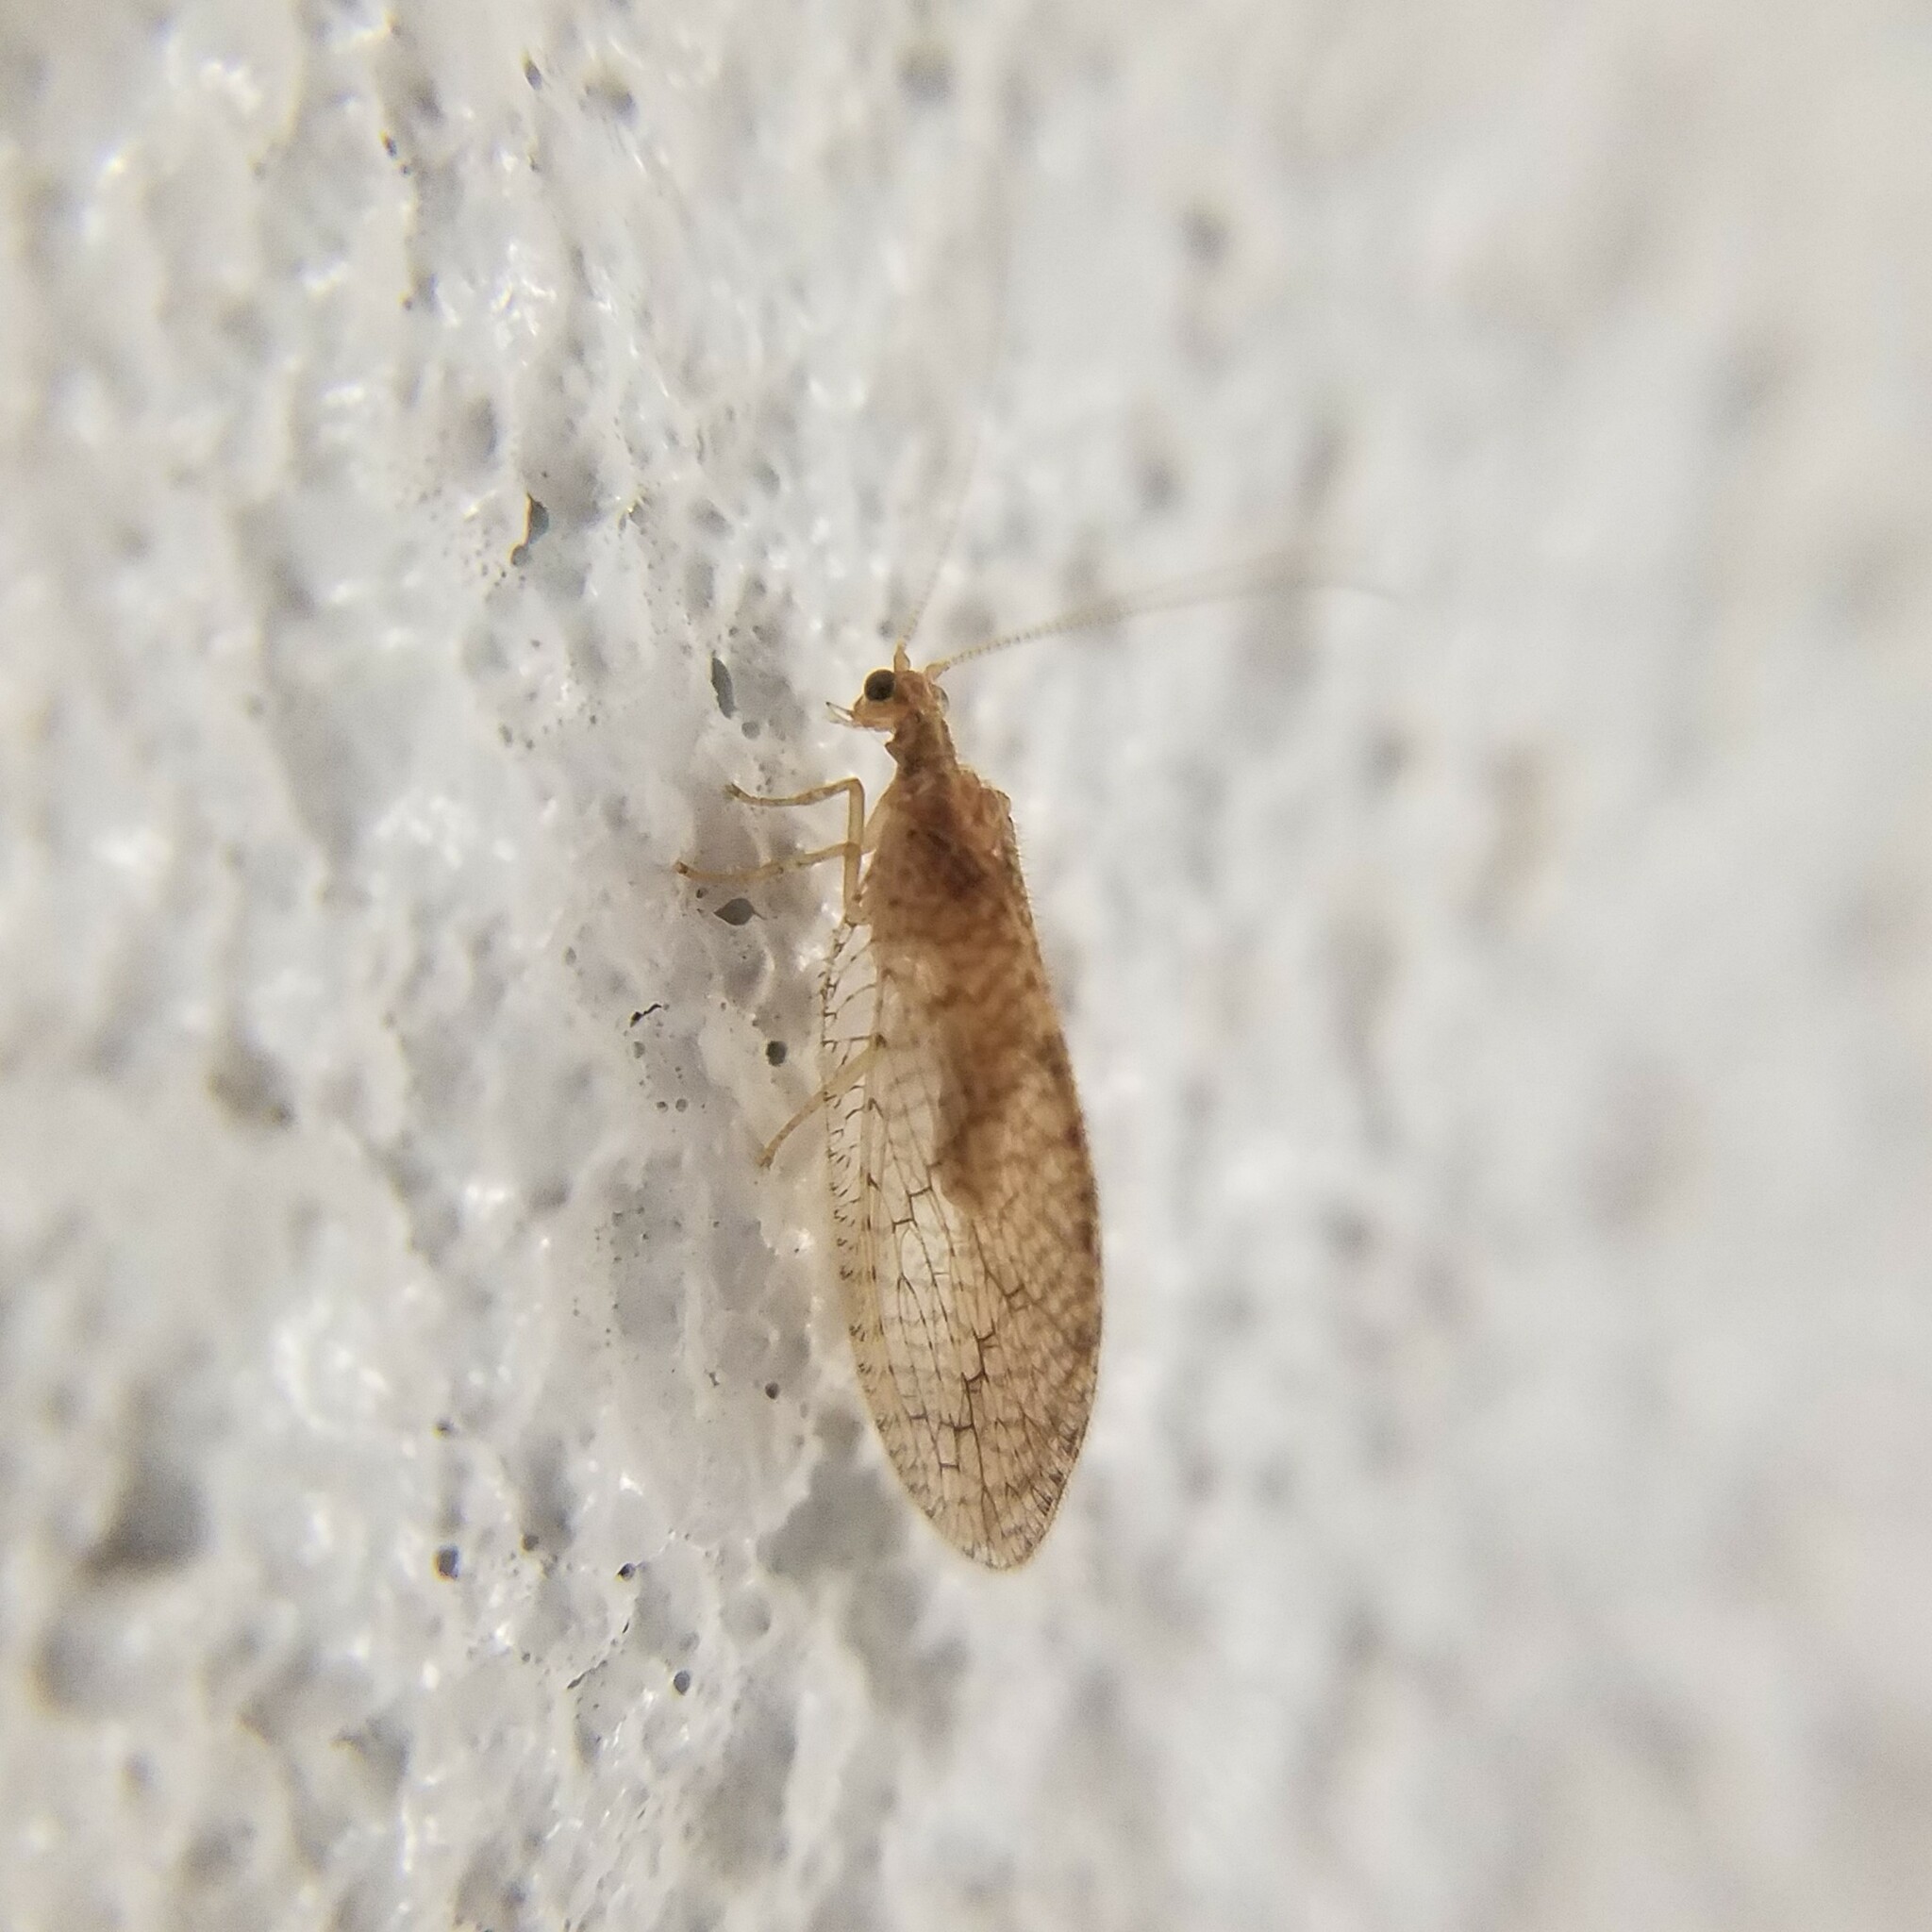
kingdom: Animalia
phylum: Arthropoda
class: Insecta
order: Neuroptera
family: Hemerobiidae
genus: Micromus
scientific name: Micromus posticus
